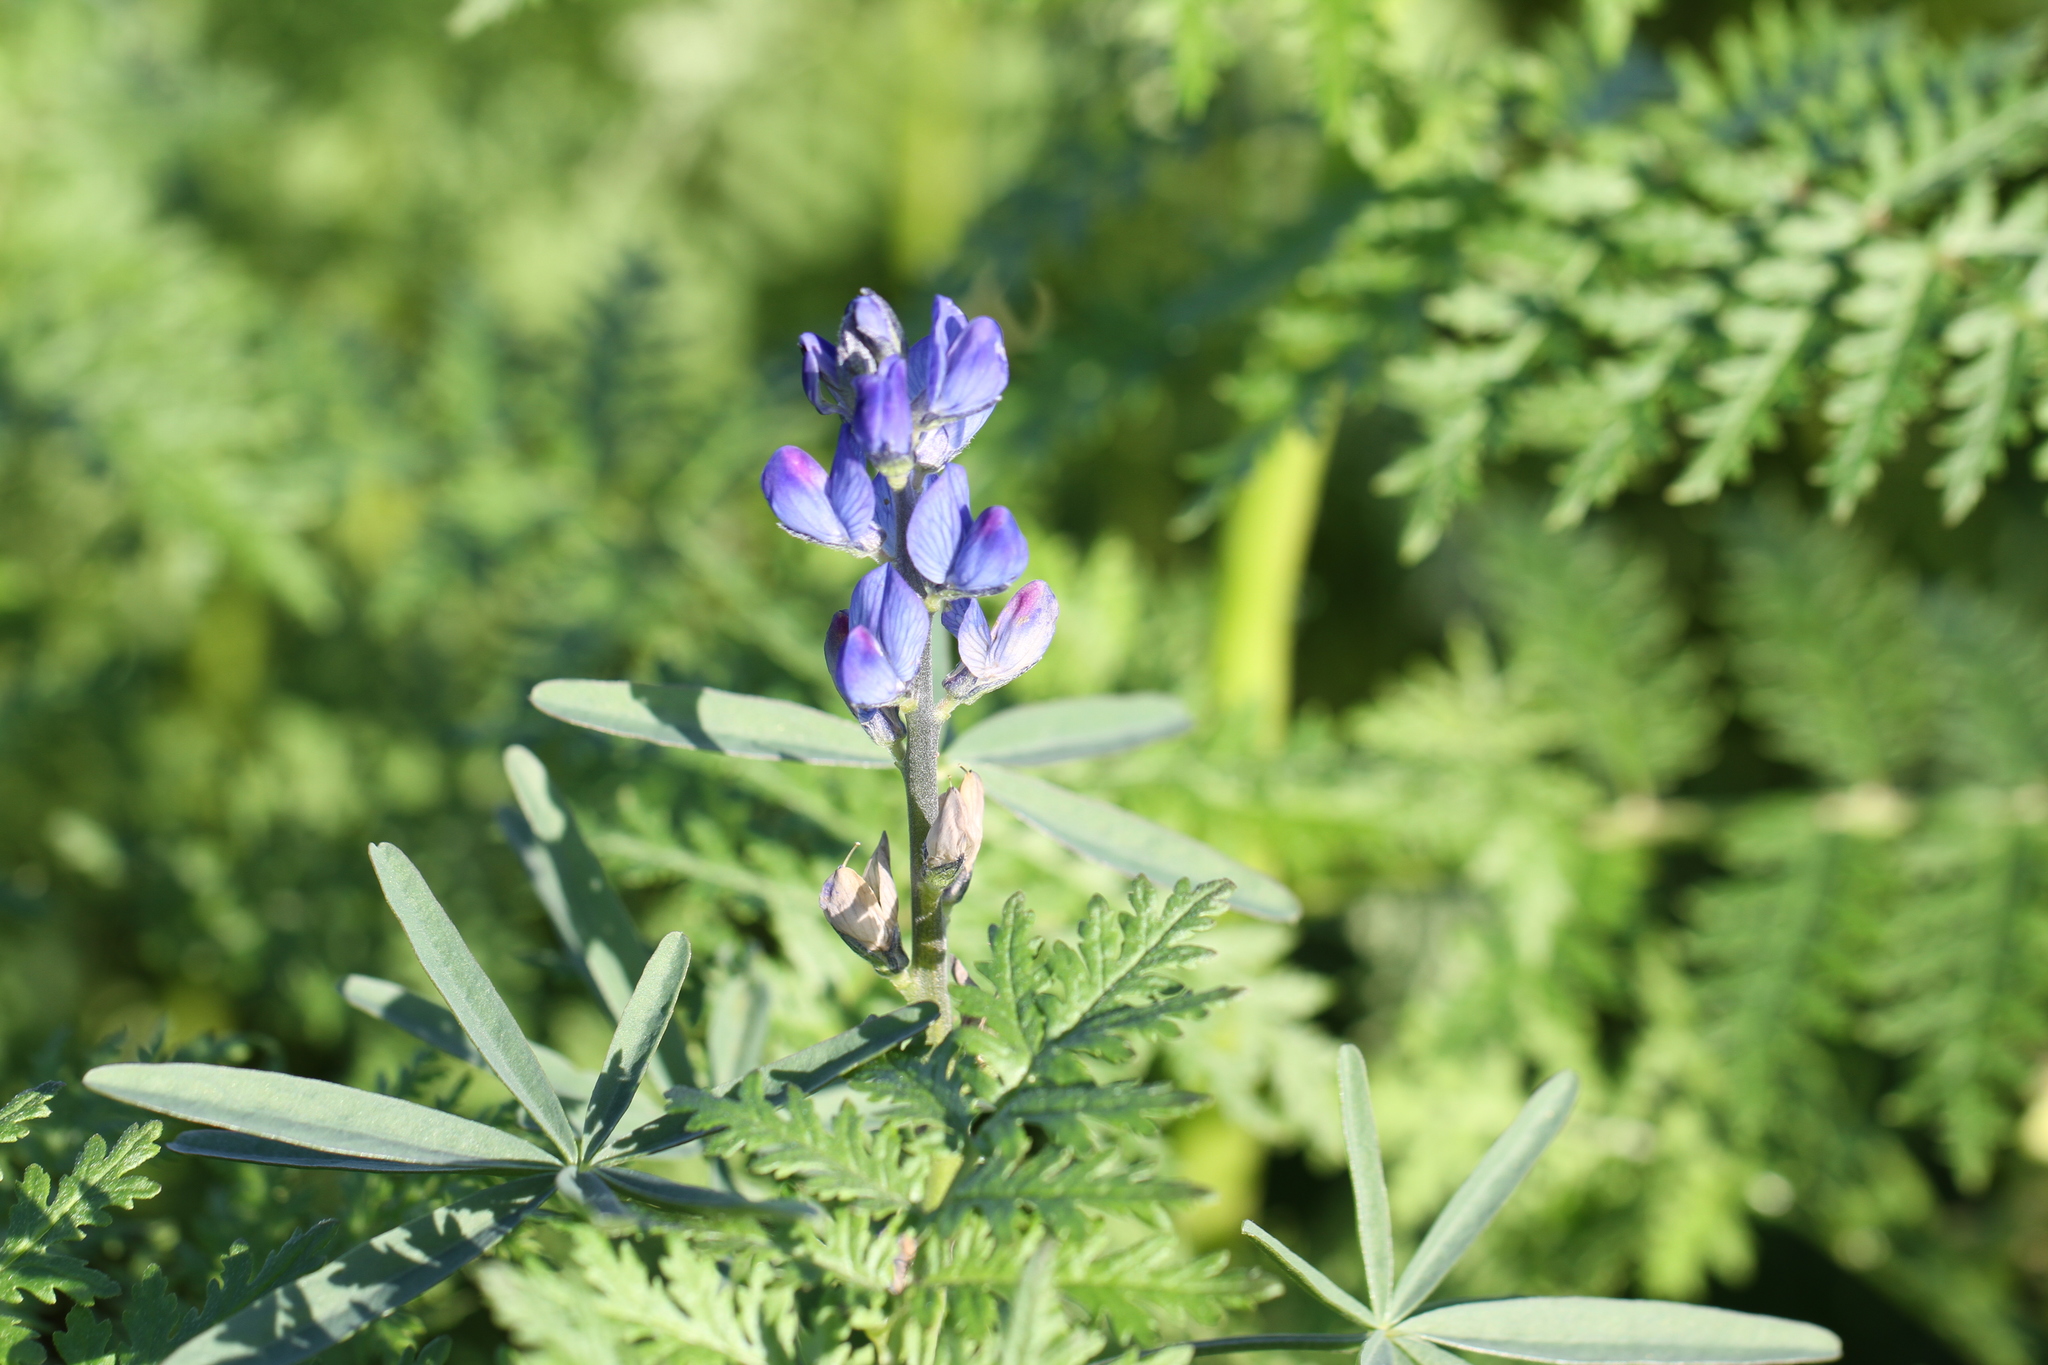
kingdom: Plantae
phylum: Tracheophyta
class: Magnoliopsida
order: Fabales
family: Fabaceae
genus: Lupinus
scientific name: Lupinus angustifolius
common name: Narrow-leaved lupin
